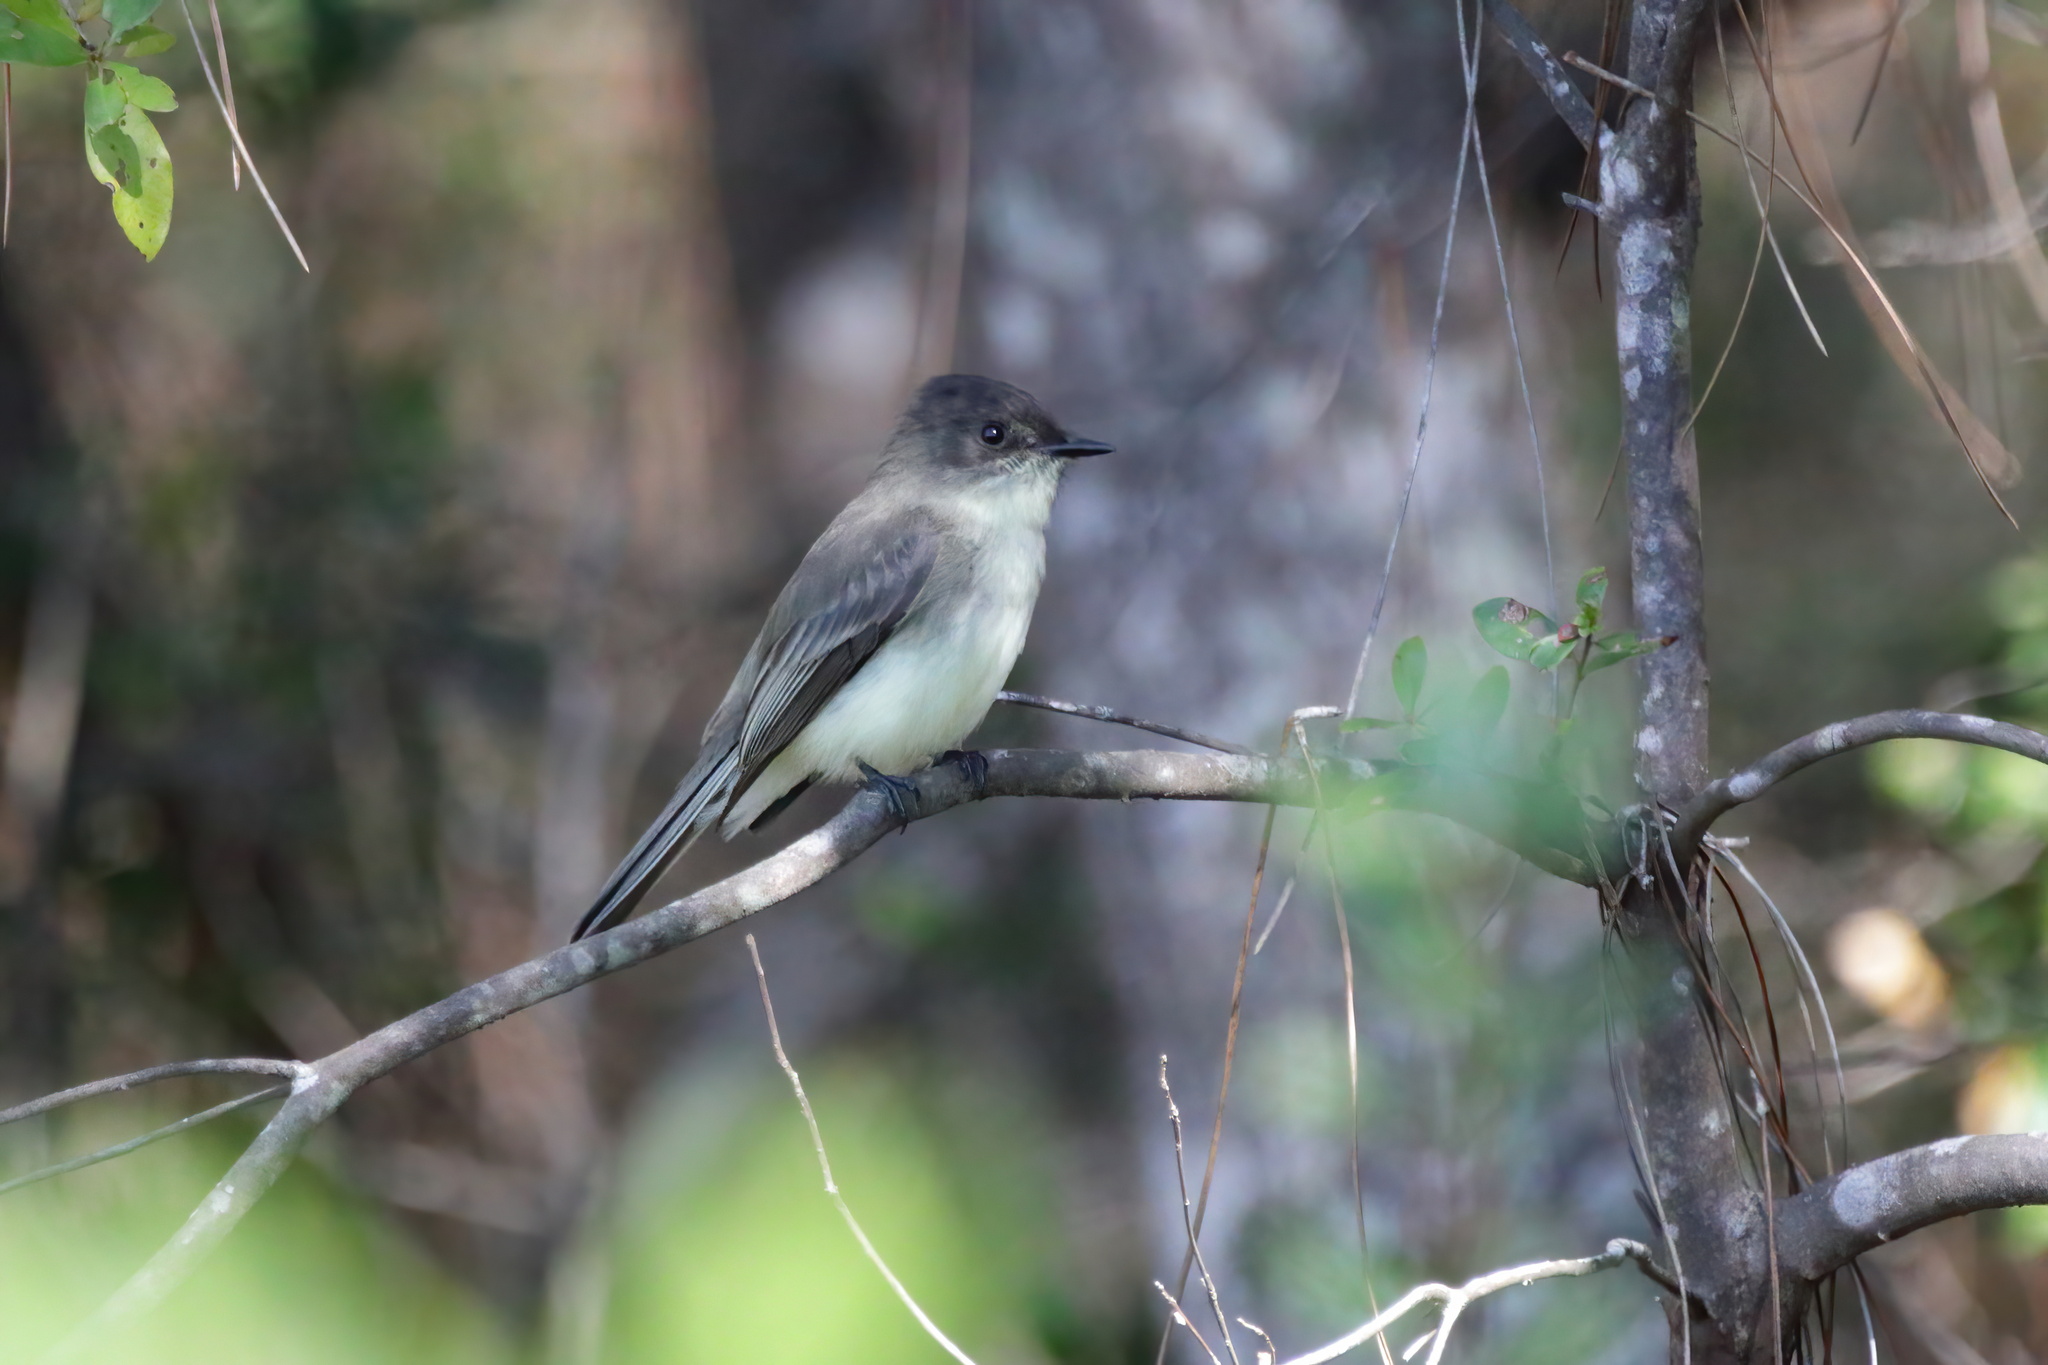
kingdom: Animalia
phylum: Chordata
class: Aves
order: Passeriformes
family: Tyrannidae
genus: Sayornis
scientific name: Sayornis phoebe
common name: Eastern phoebe
